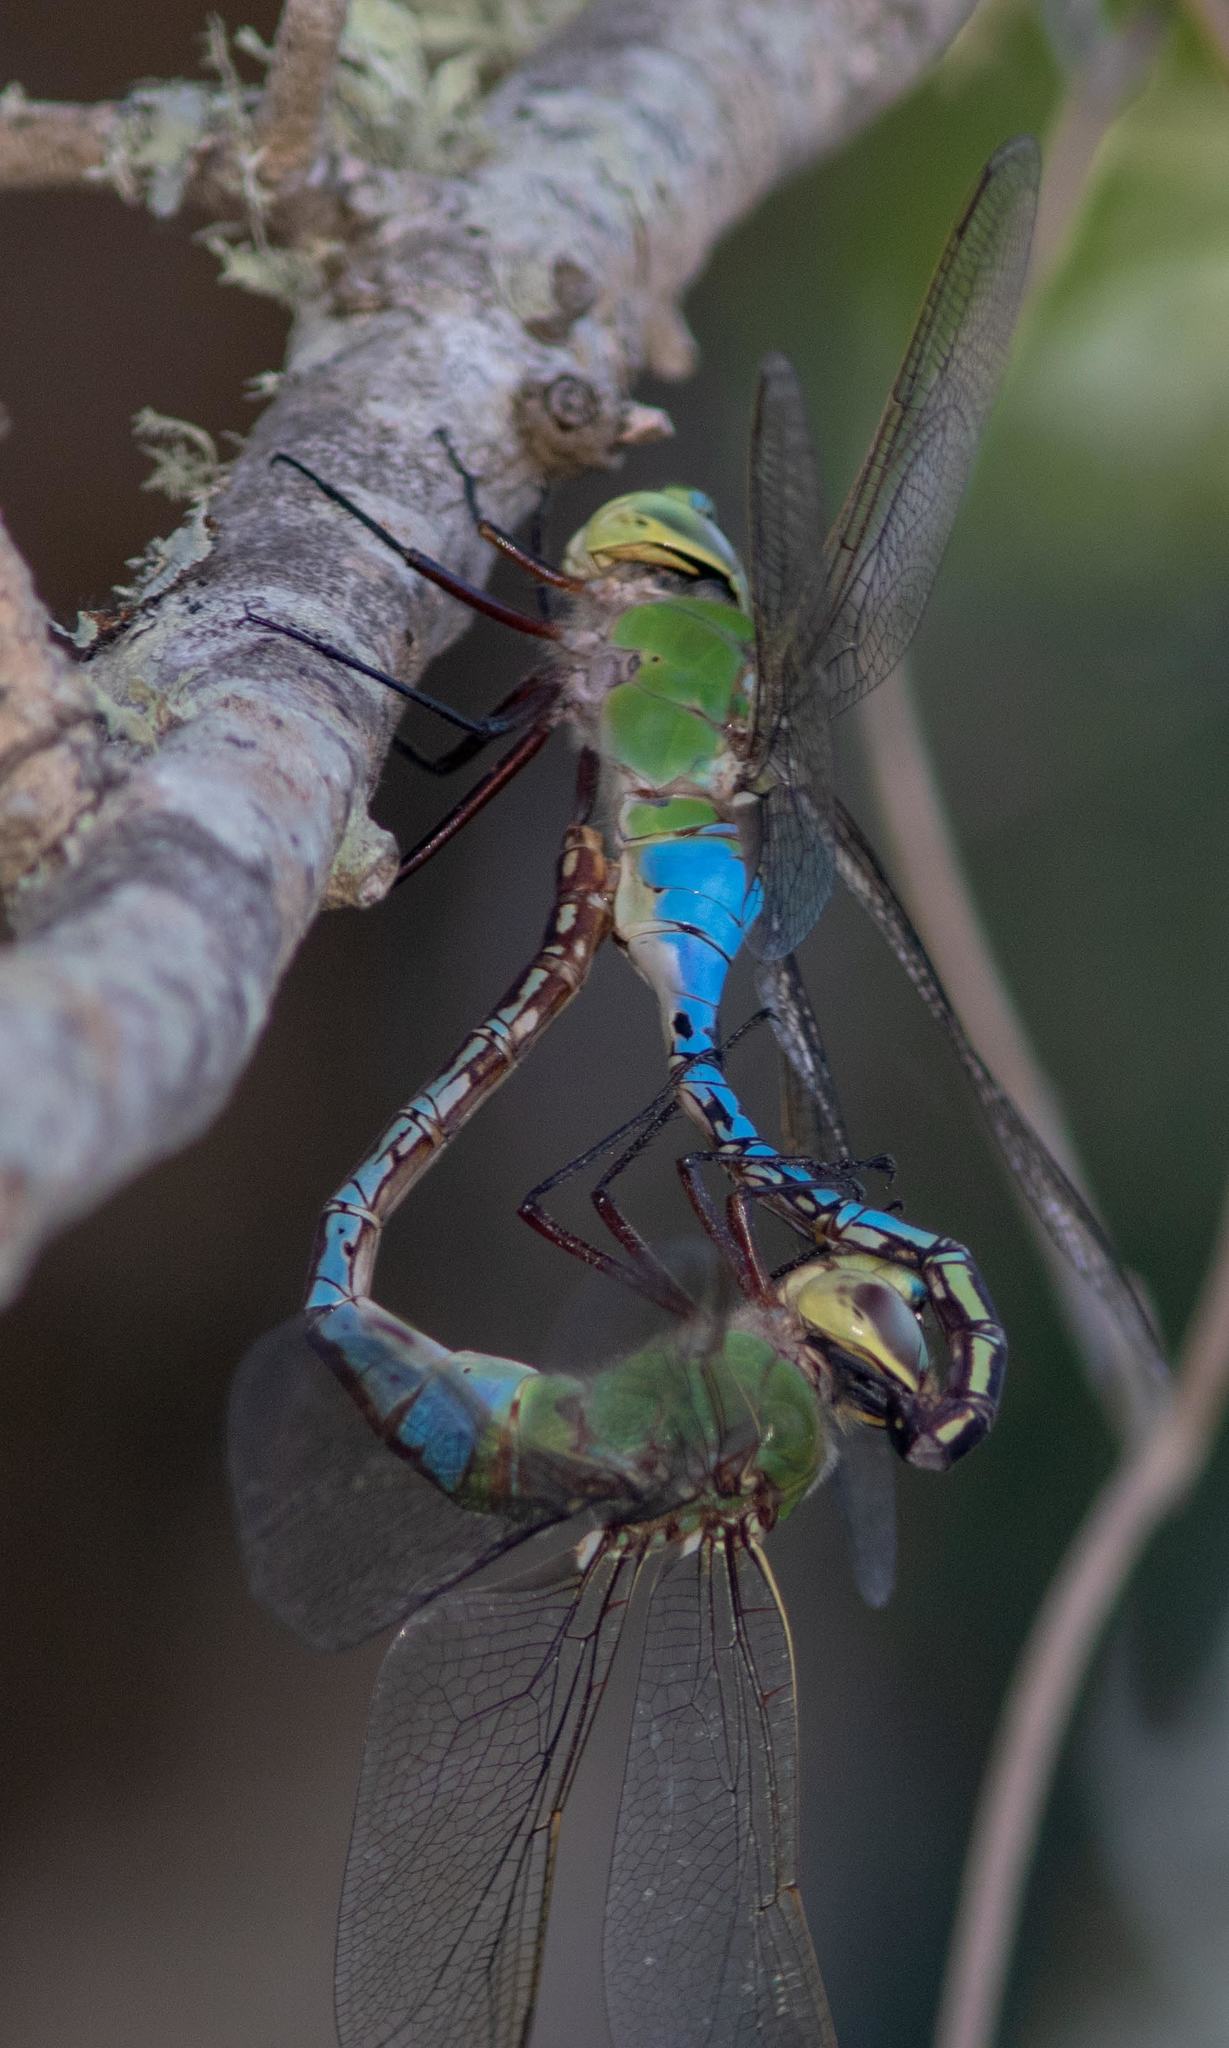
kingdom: Animalia
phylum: Arthropoda
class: Insecta
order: Odonata
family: Aeshnidae
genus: Anax
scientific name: Anax junius
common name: Common green darner
